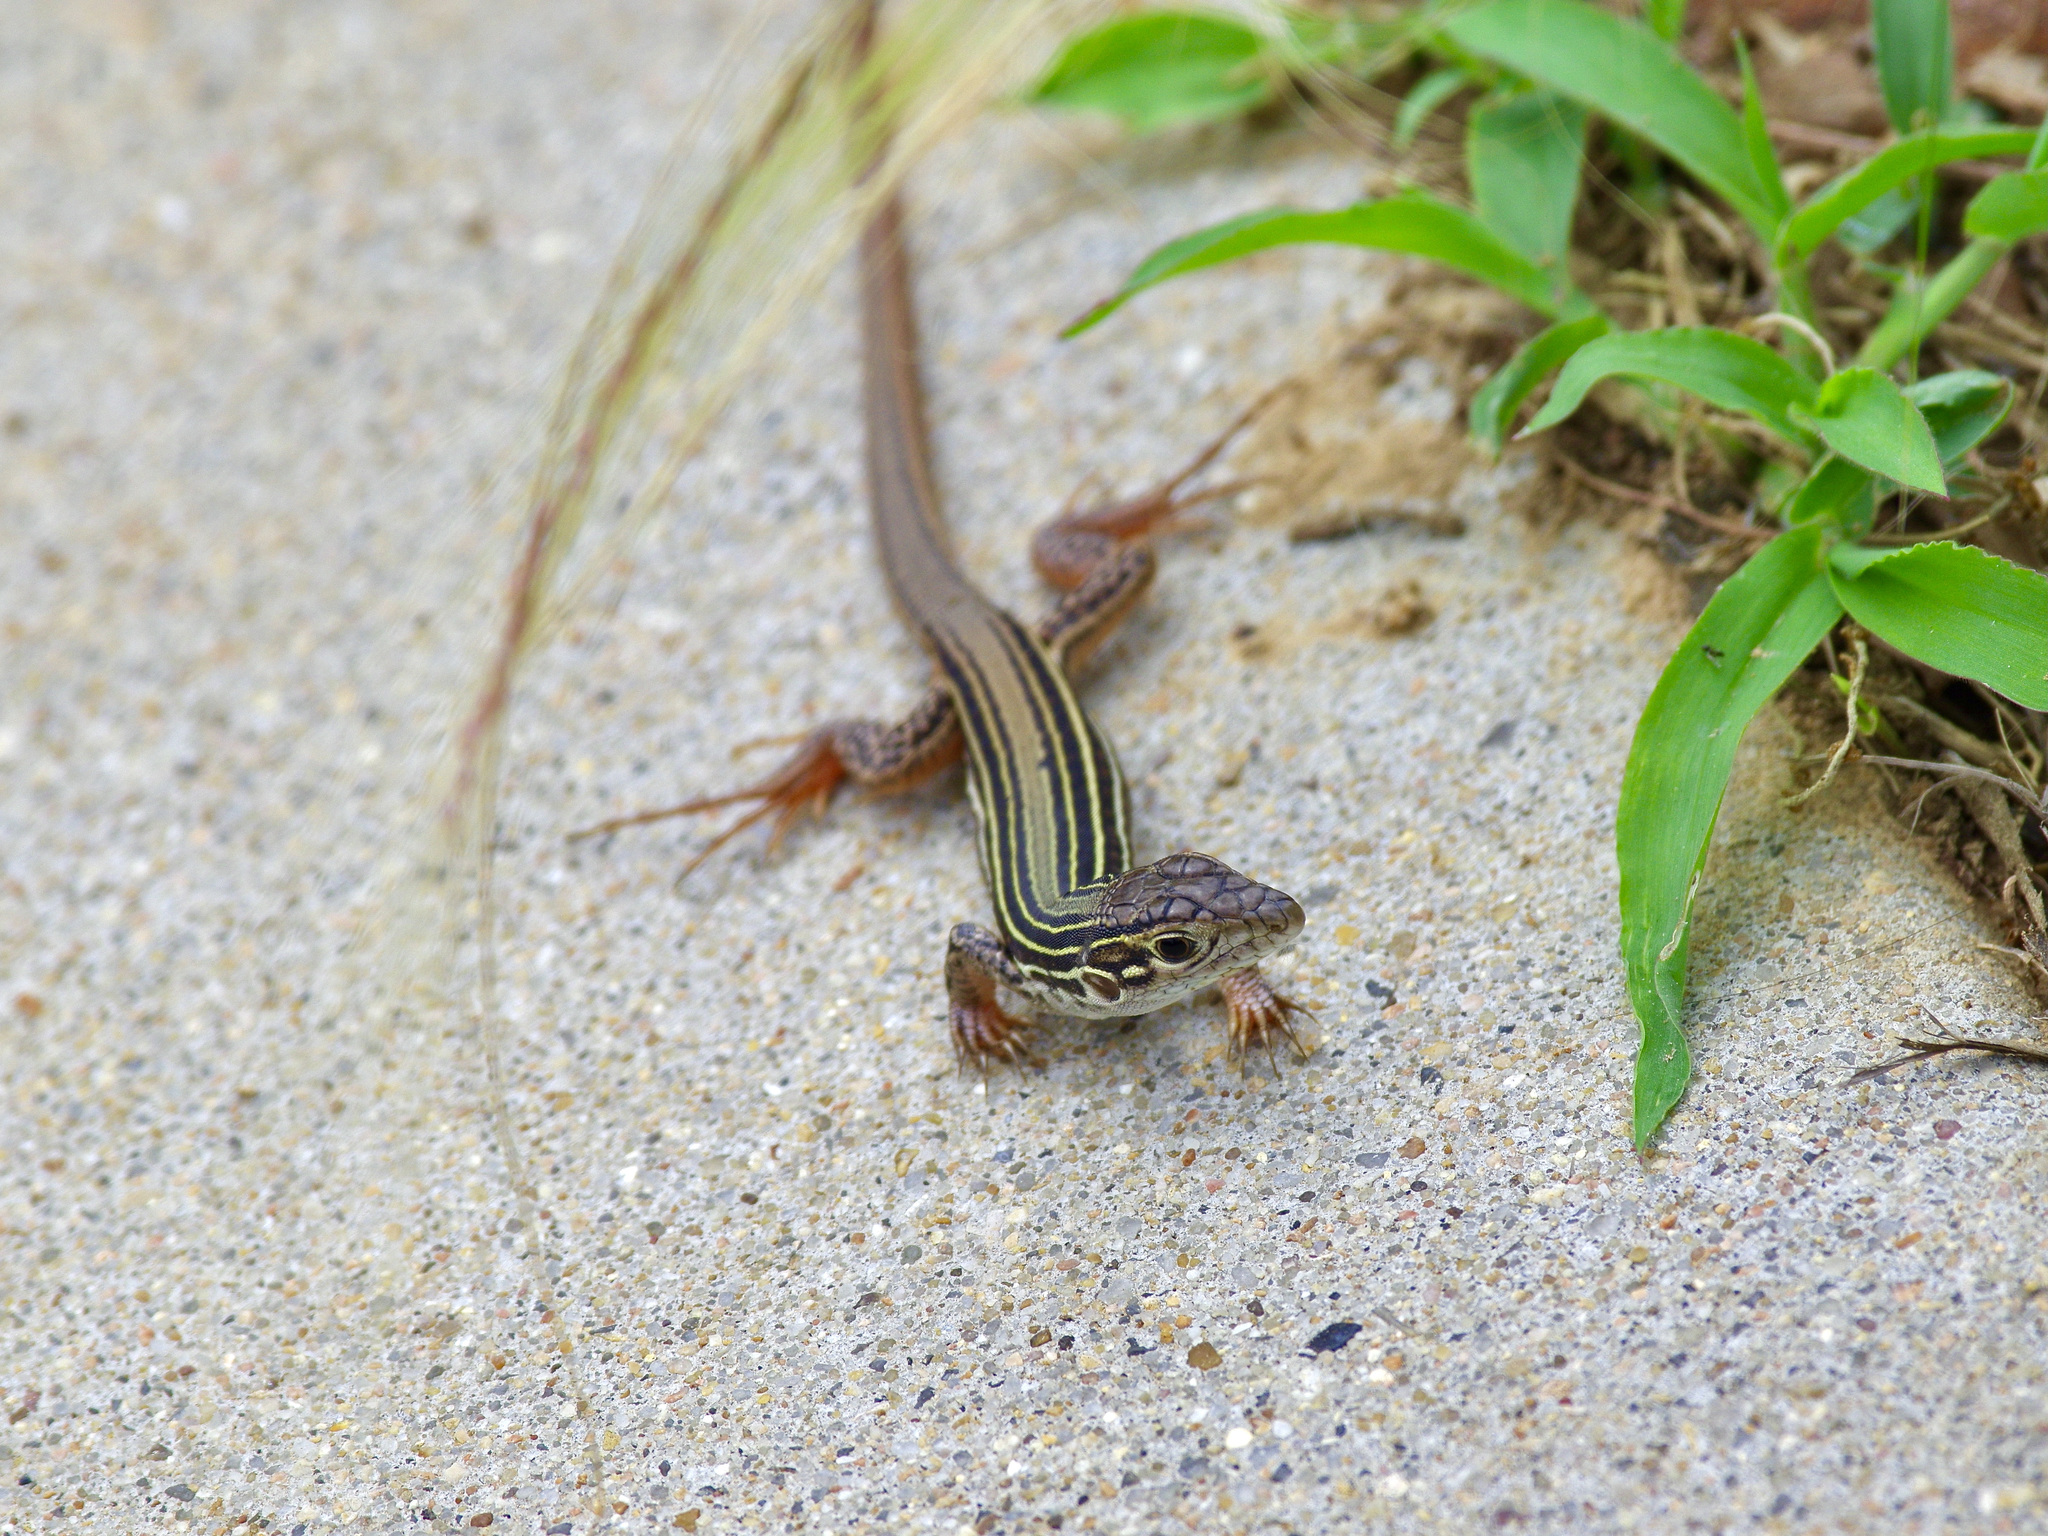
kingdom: Animalia
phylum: Chordata
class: Squamata
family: Teiidae
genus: Aspidoscelis
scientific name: Aspidoscelis gularis
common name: Eastern spotted whiptail
